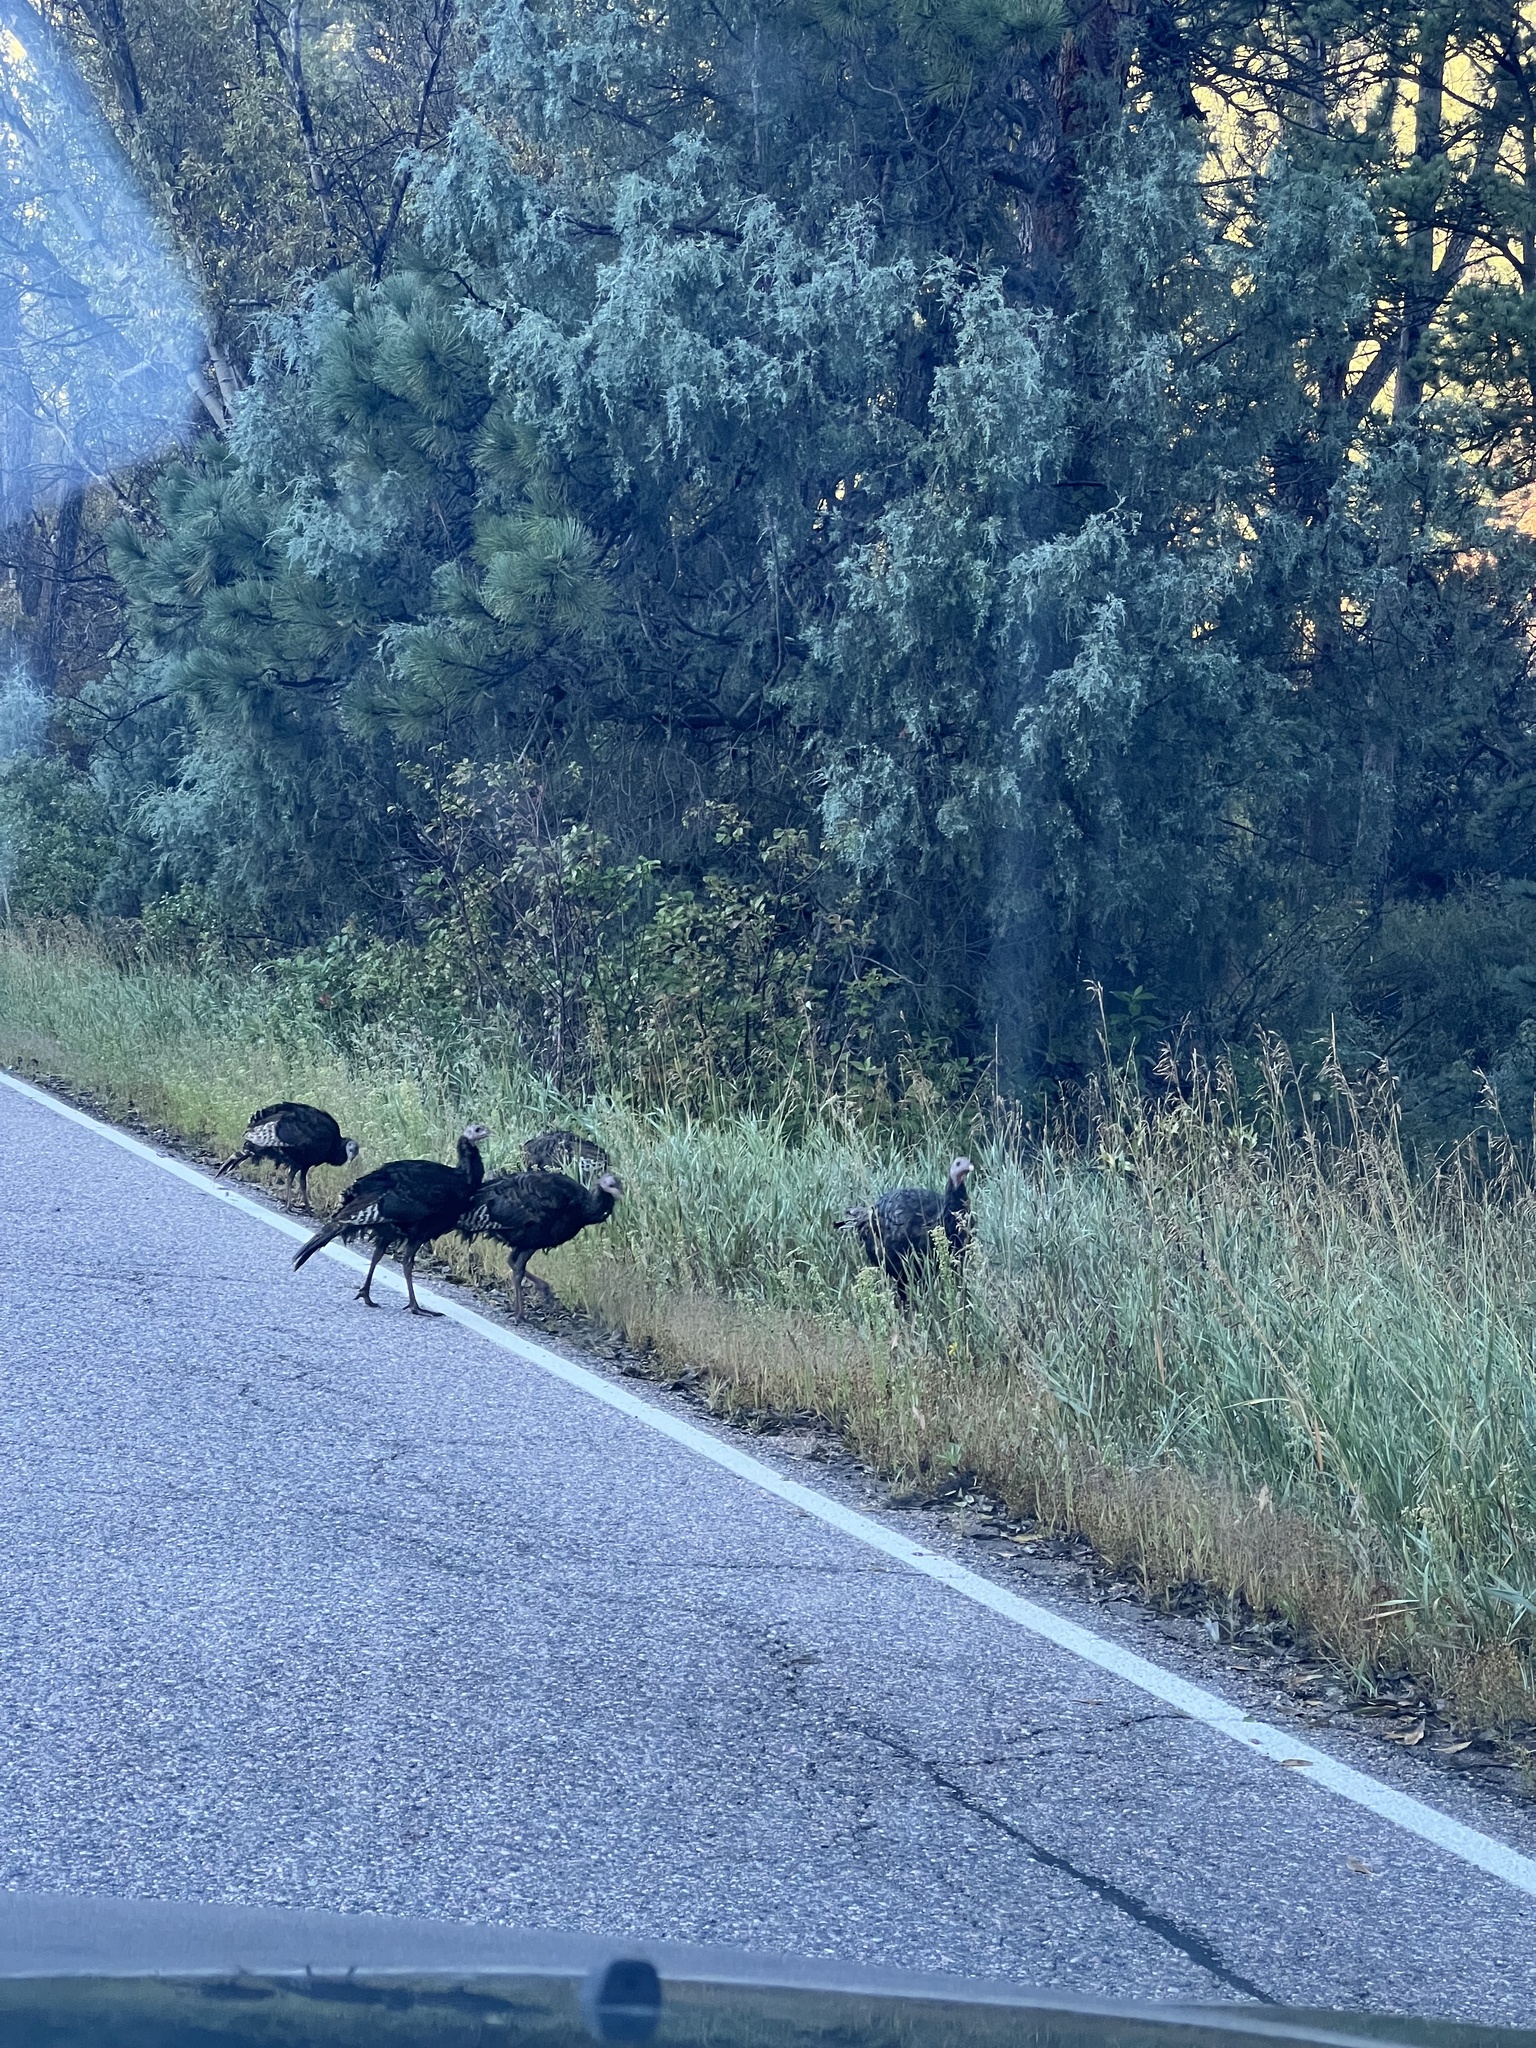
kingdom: Animalia
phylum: Chordata
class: Aves
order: Galliformes
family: Phasianidae
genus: Meleagris
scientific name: Meleagris gallopavo
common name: Wild turkey
